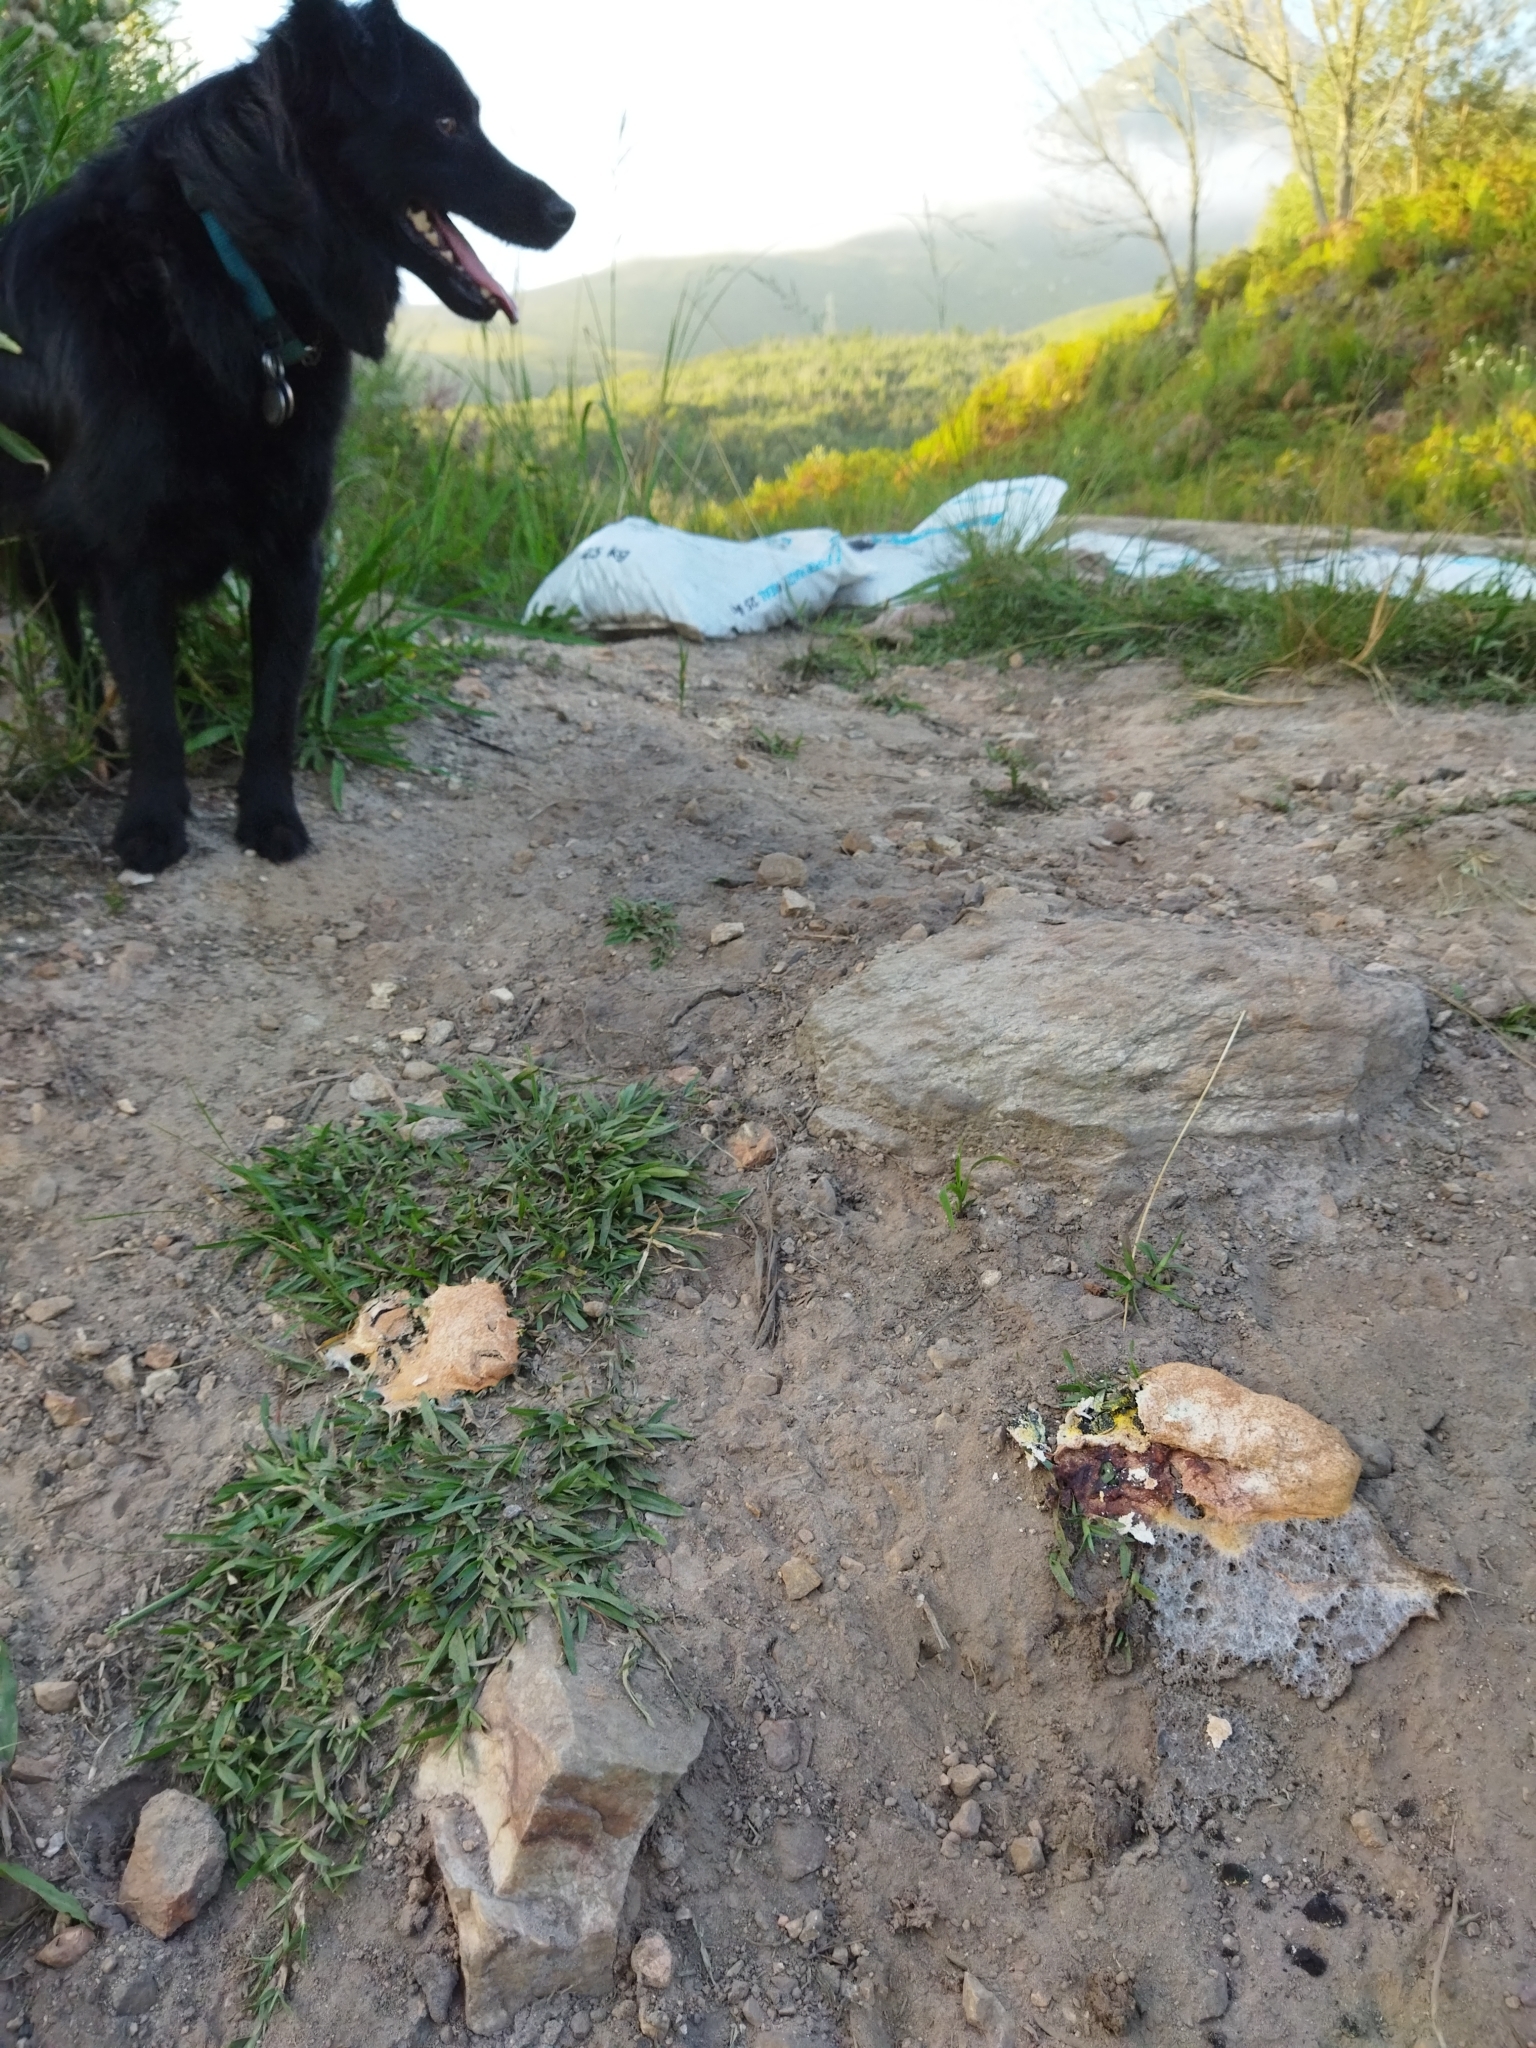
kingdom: Protozoa
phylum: Mycetozoa
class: Myxomycetes
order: Physarales
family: Physaraceae
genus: Fuligo
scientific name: Fuligo septica
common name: Dog vomit slime mold
